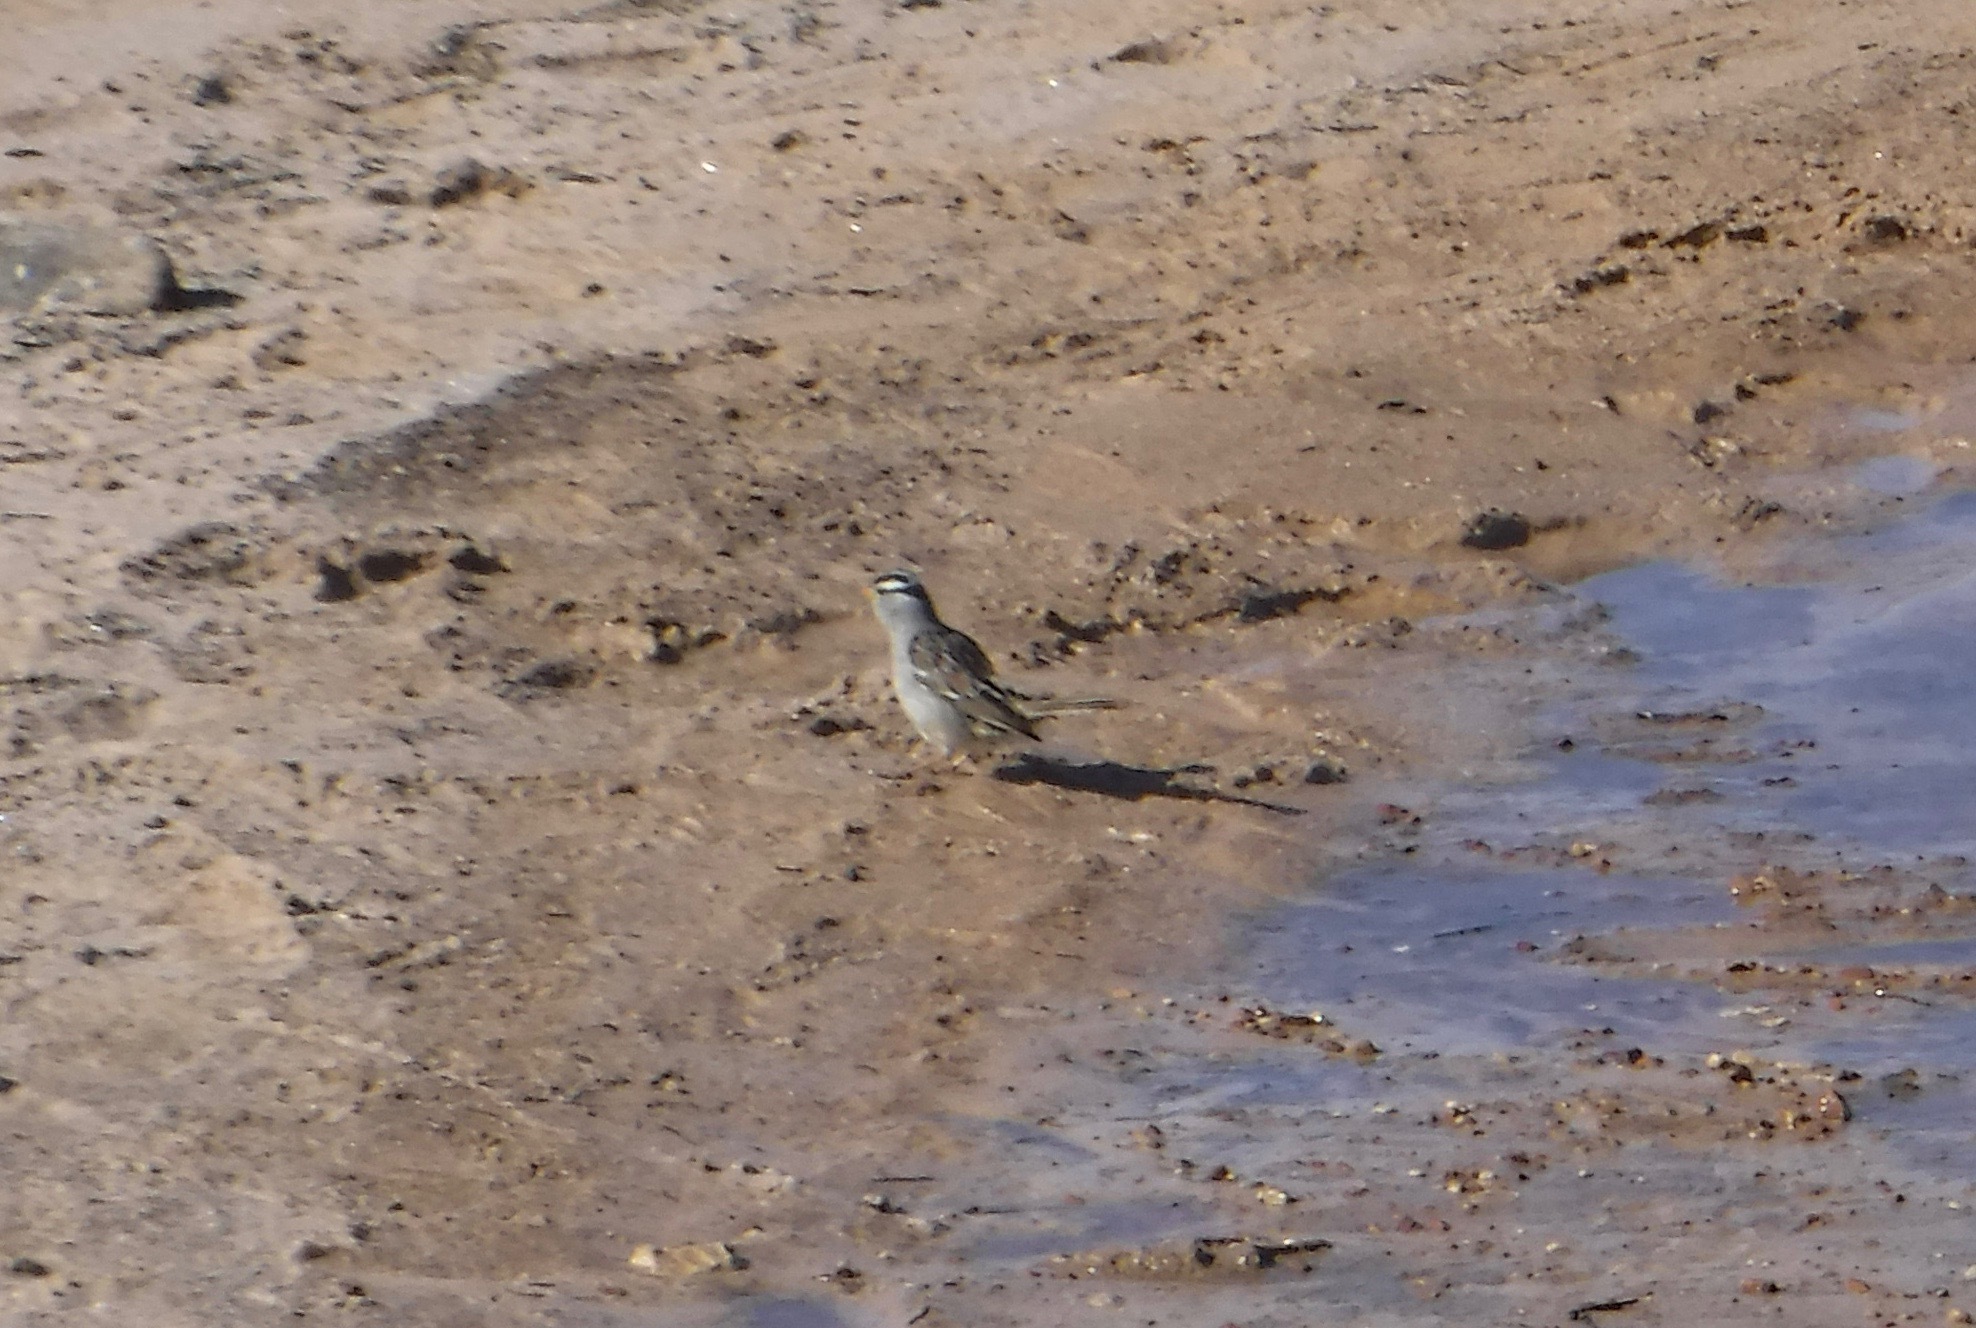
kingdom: Animalia
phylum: Chordata
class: Aves
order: Passeriformes
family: Passerellidae
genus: Zonotrichia
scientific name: Zonotrichia leucophrys
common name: White-crowned sparrow
